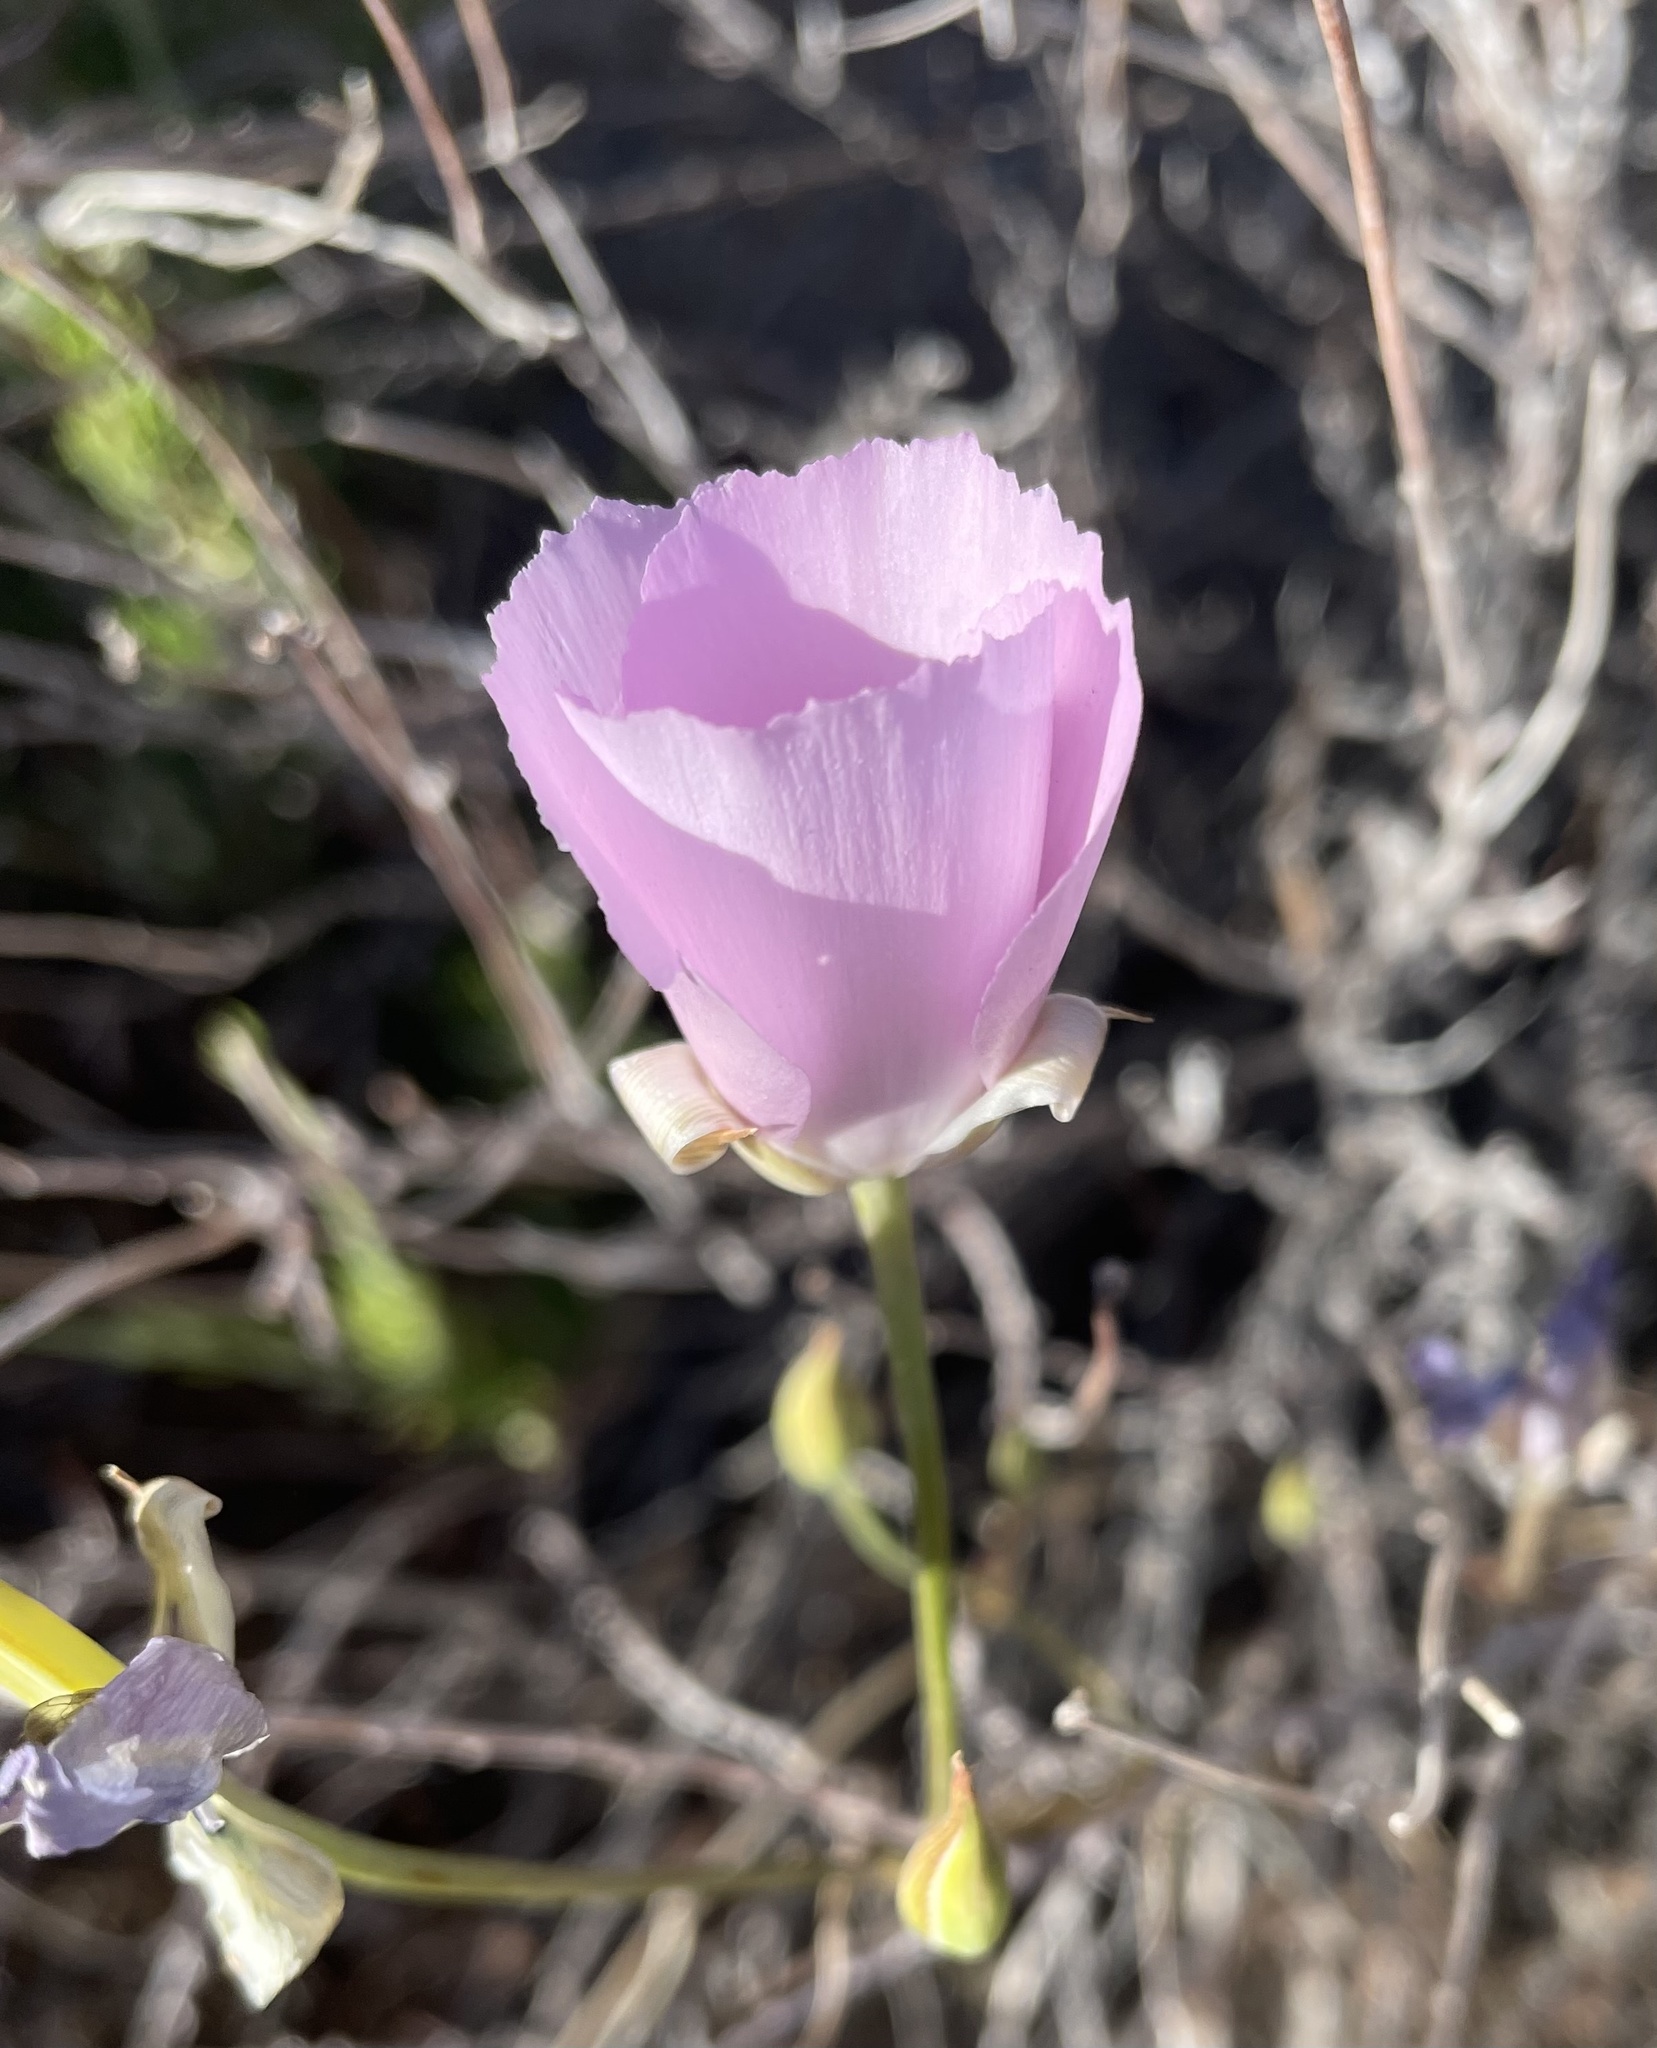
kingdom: Plantae
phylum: Tracheophyta
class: Liliopsida
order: Liliales
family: Liliaceae
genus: Calochortus
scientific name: Calochortus splendens
